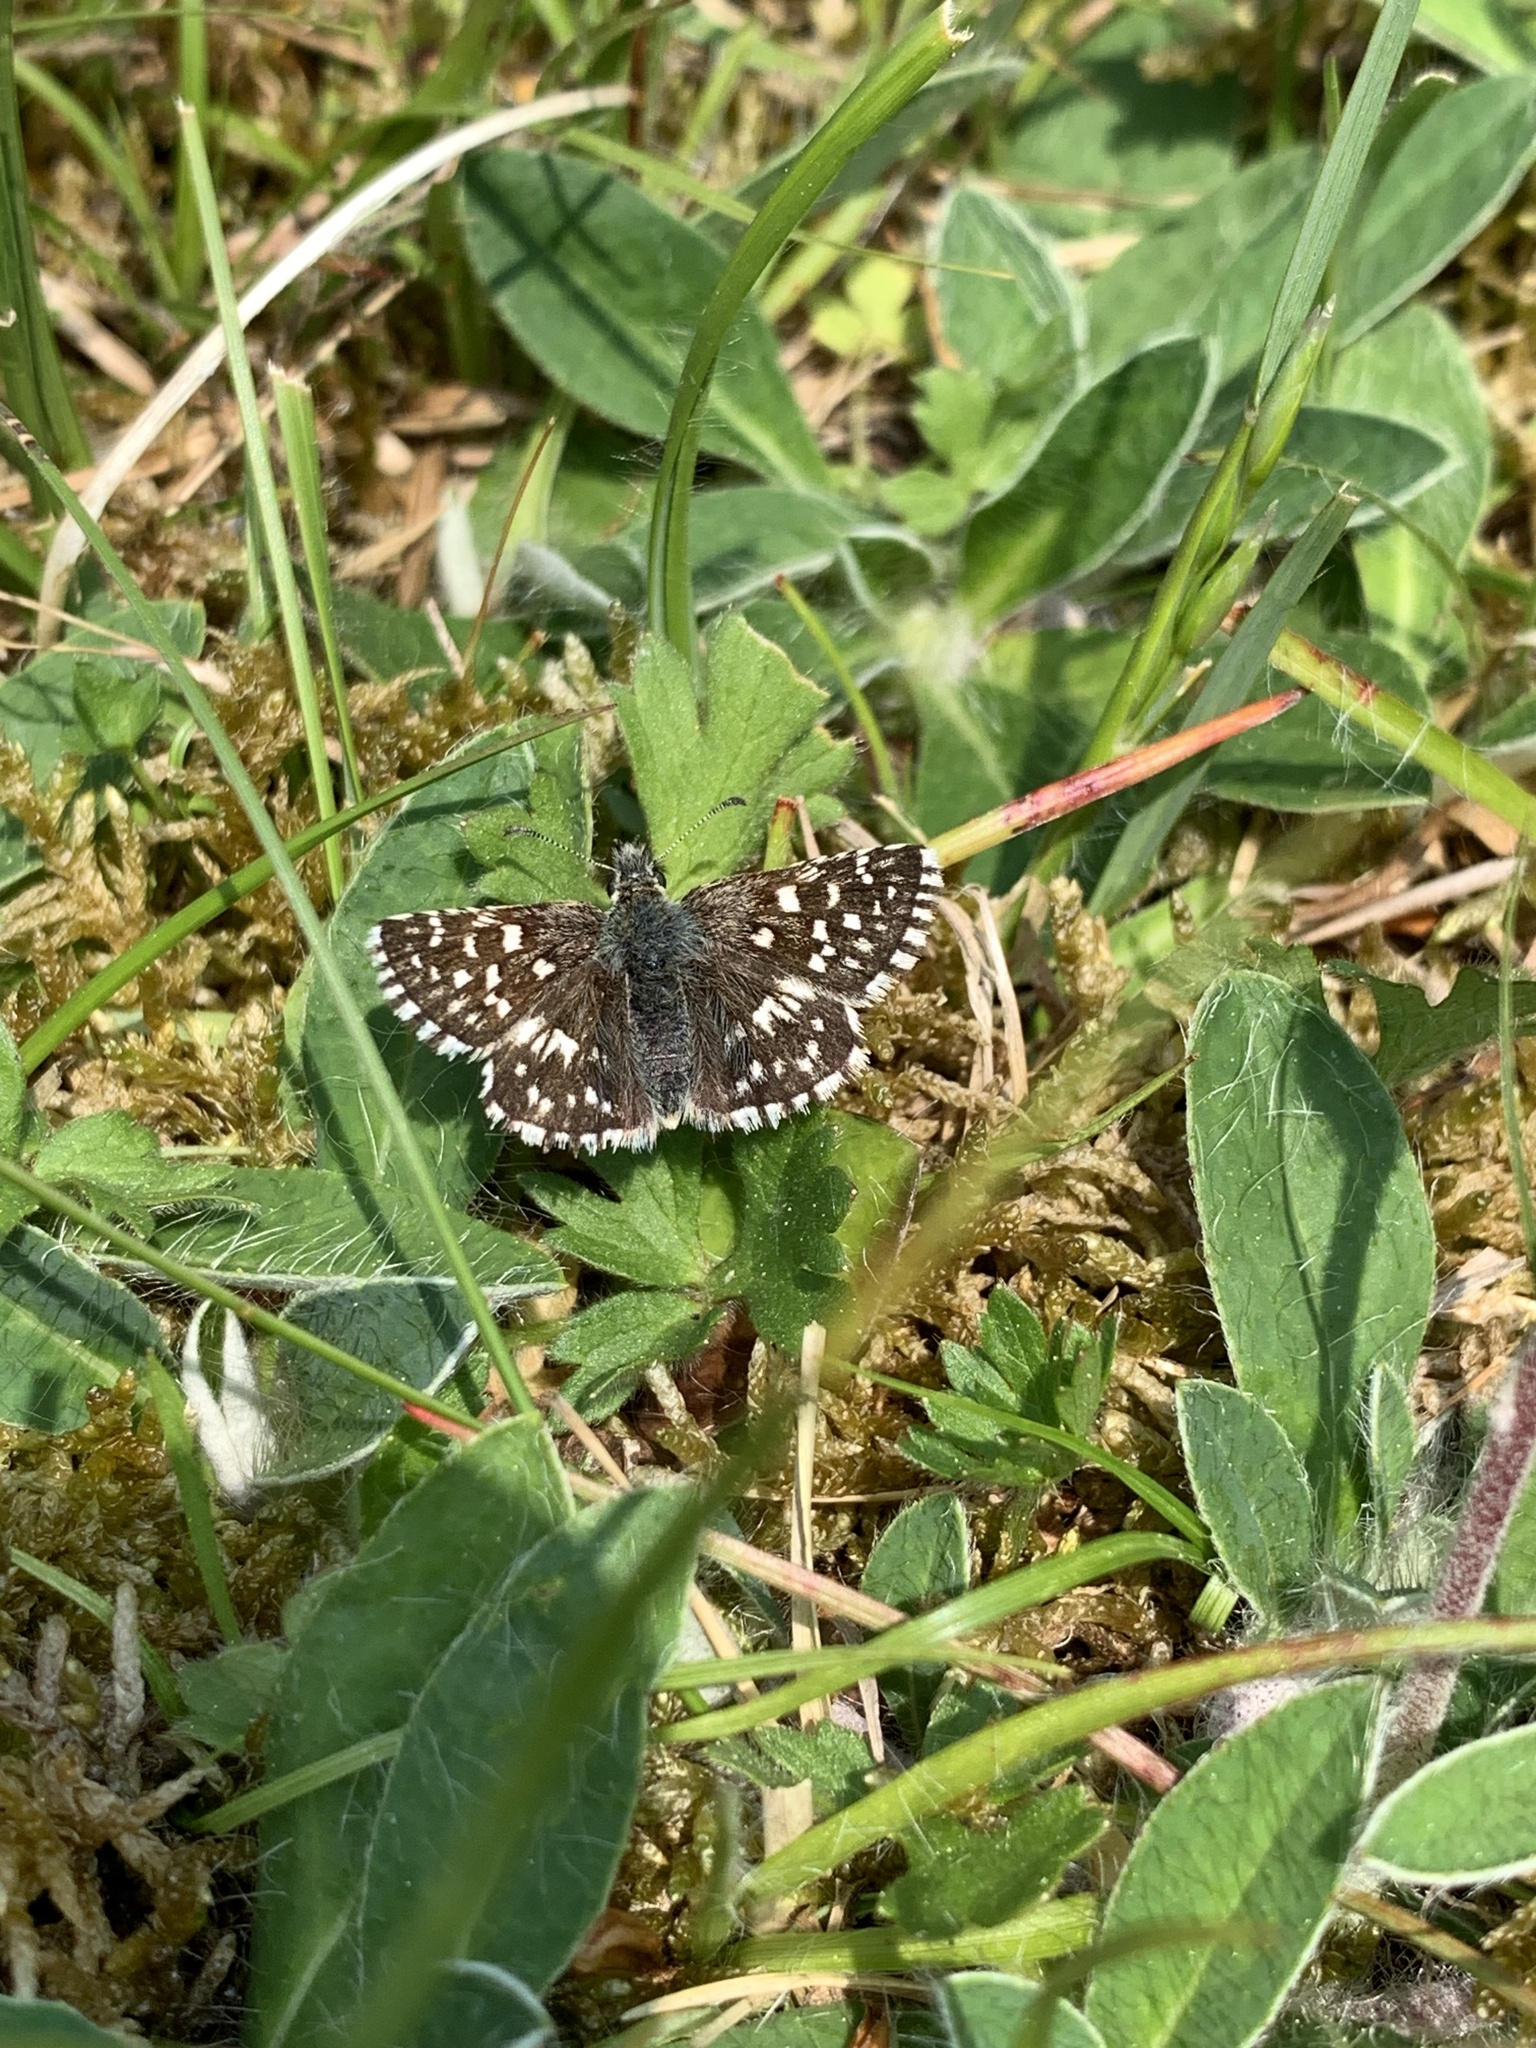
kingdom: Animalia
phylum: Arthropoda
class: Insecta
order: Lepidoptera
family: Hesperiidae
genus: Pyrgus
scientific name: Pyrgus malvae
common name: Grizzled skipper
